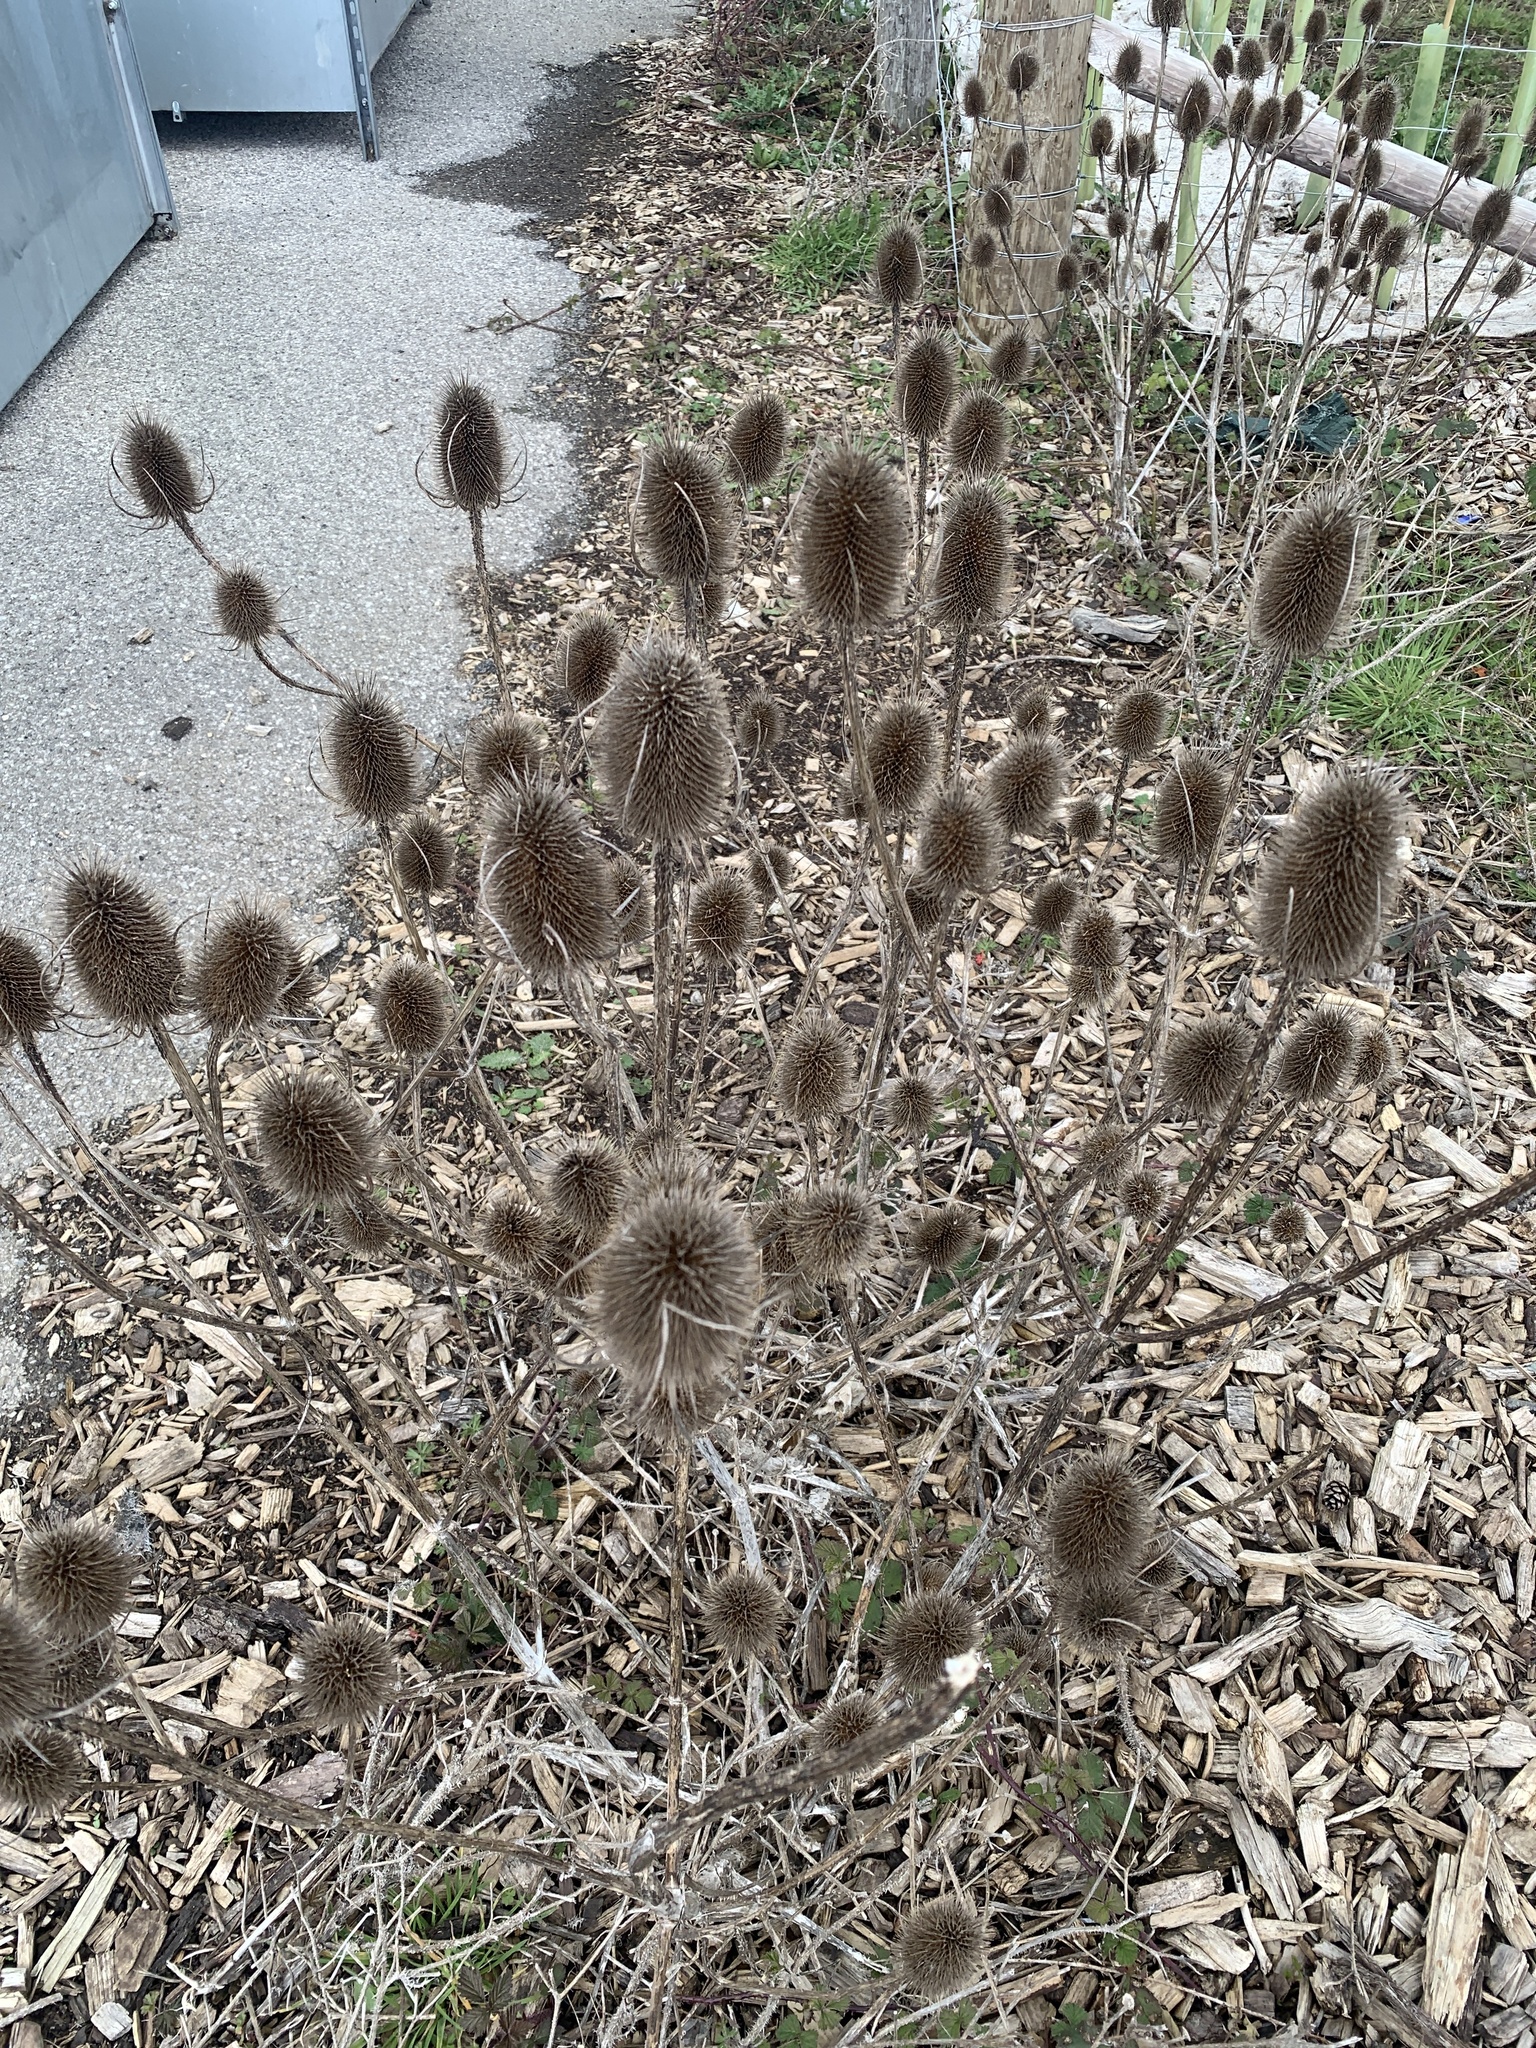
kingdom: Plantae
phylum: Tracheophyta
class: Magnoliopsida
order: Dipsacales
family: Caprifoliaceae
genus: Dipsacus
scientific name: Dipsacus fullonum
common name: Teasel
